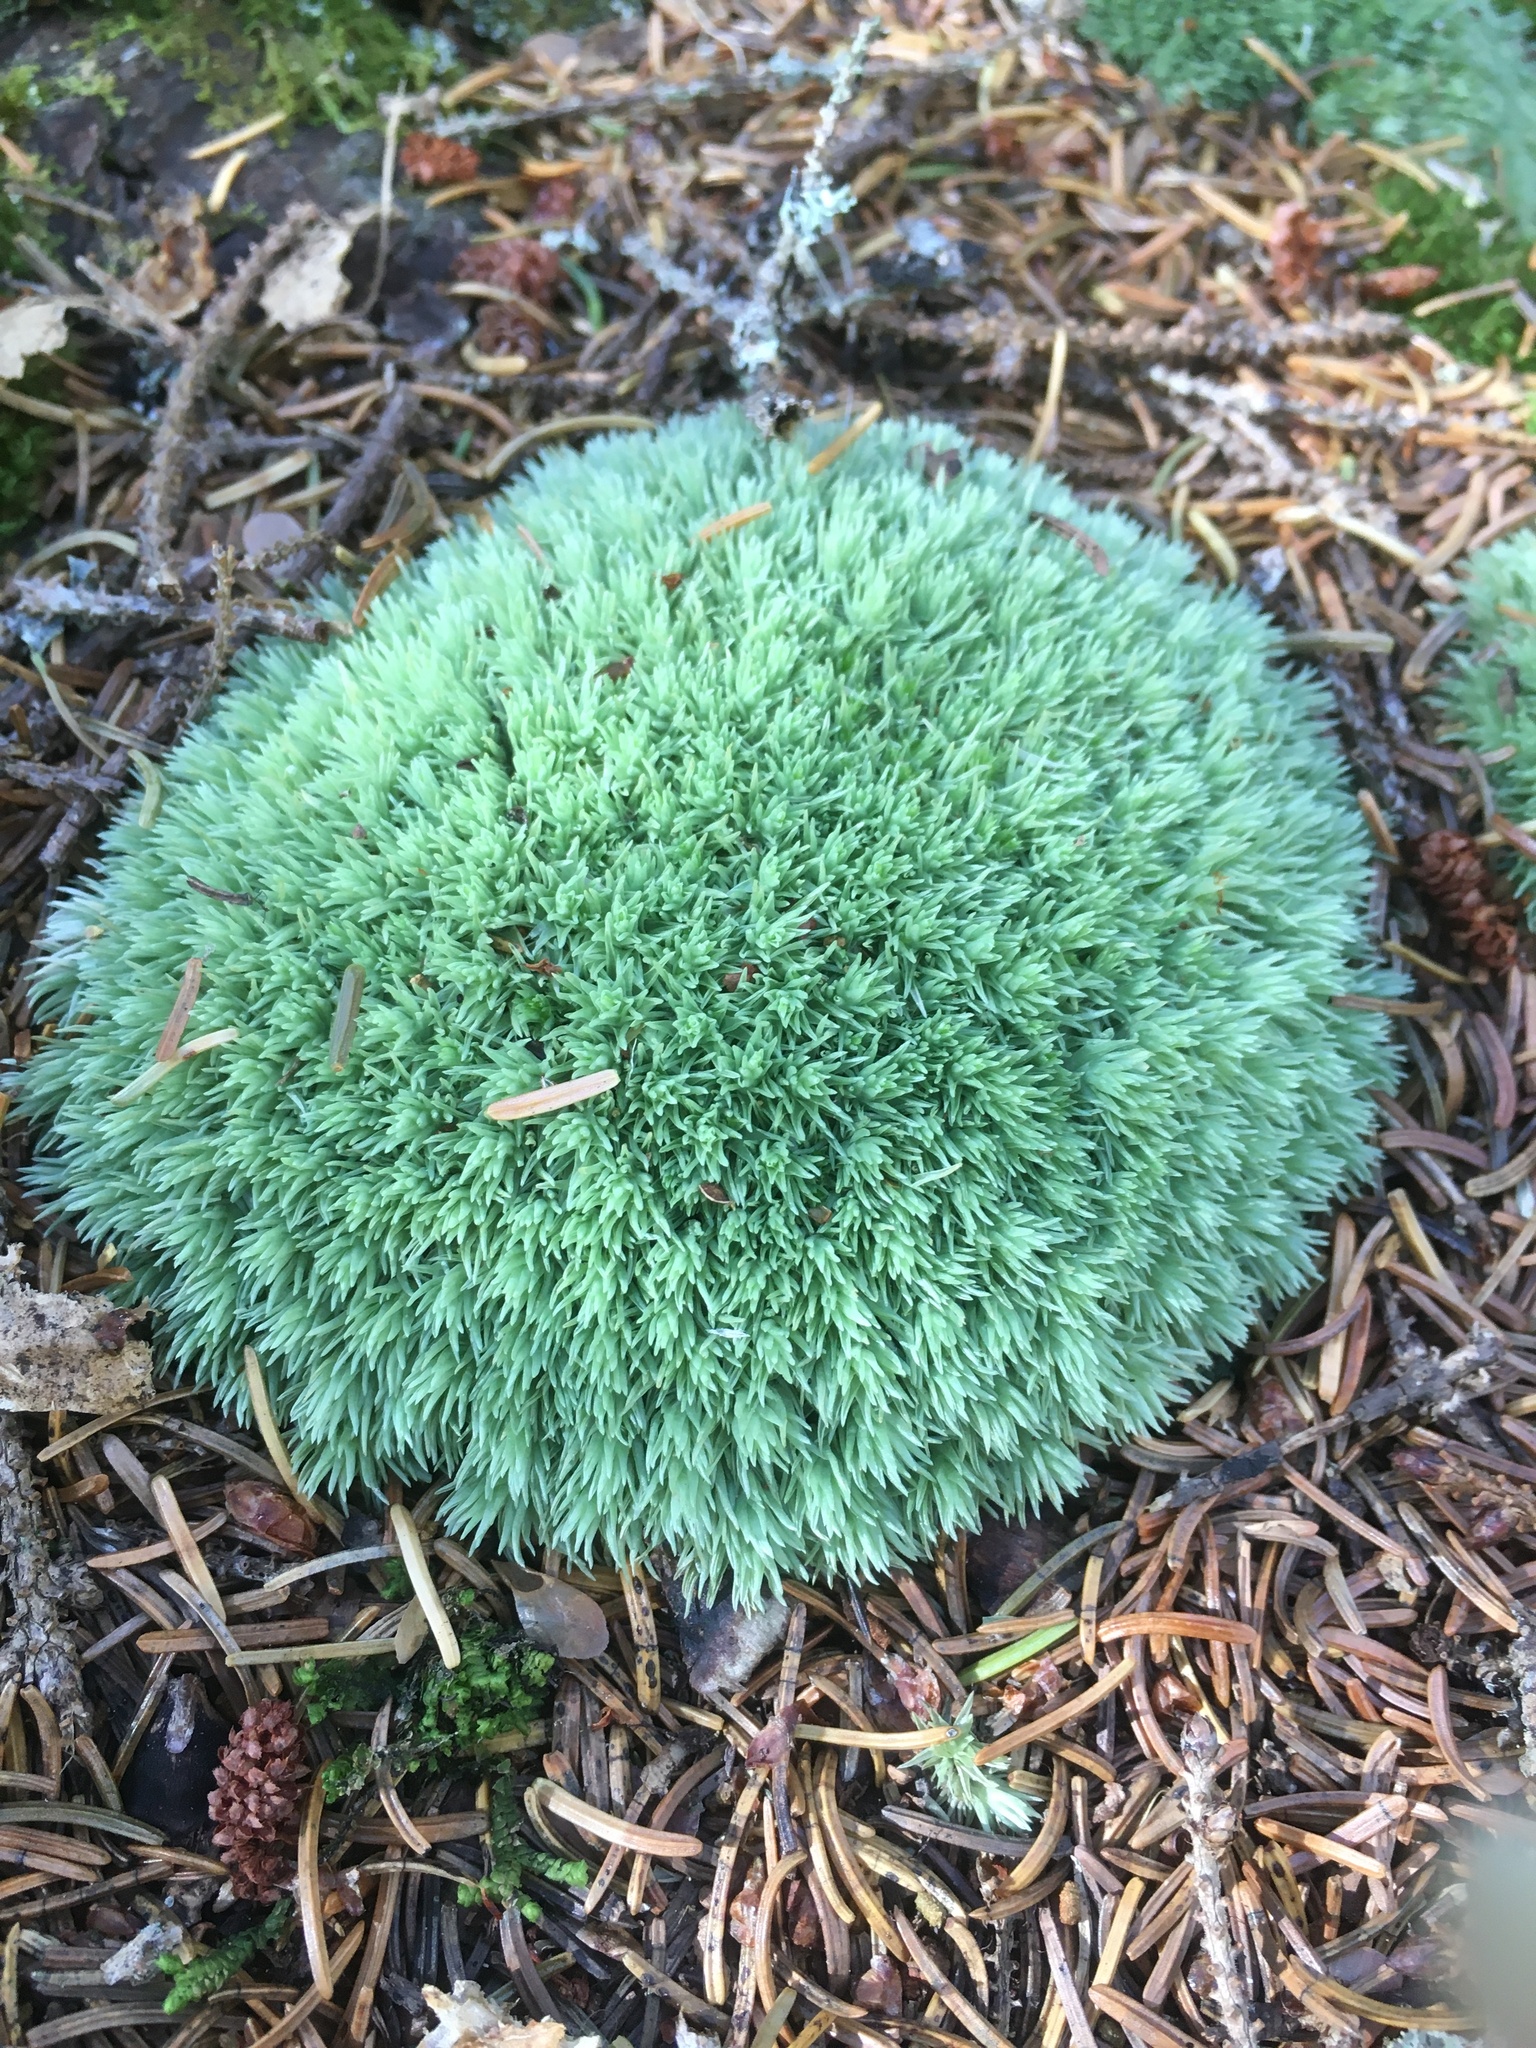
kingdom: Plantae
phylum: Bryophyta
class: Bryopsida
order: Dicranales
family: Leucobryaceae
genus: Leucobryum
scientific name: Leucobryum glaucum
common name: Large white-moss
